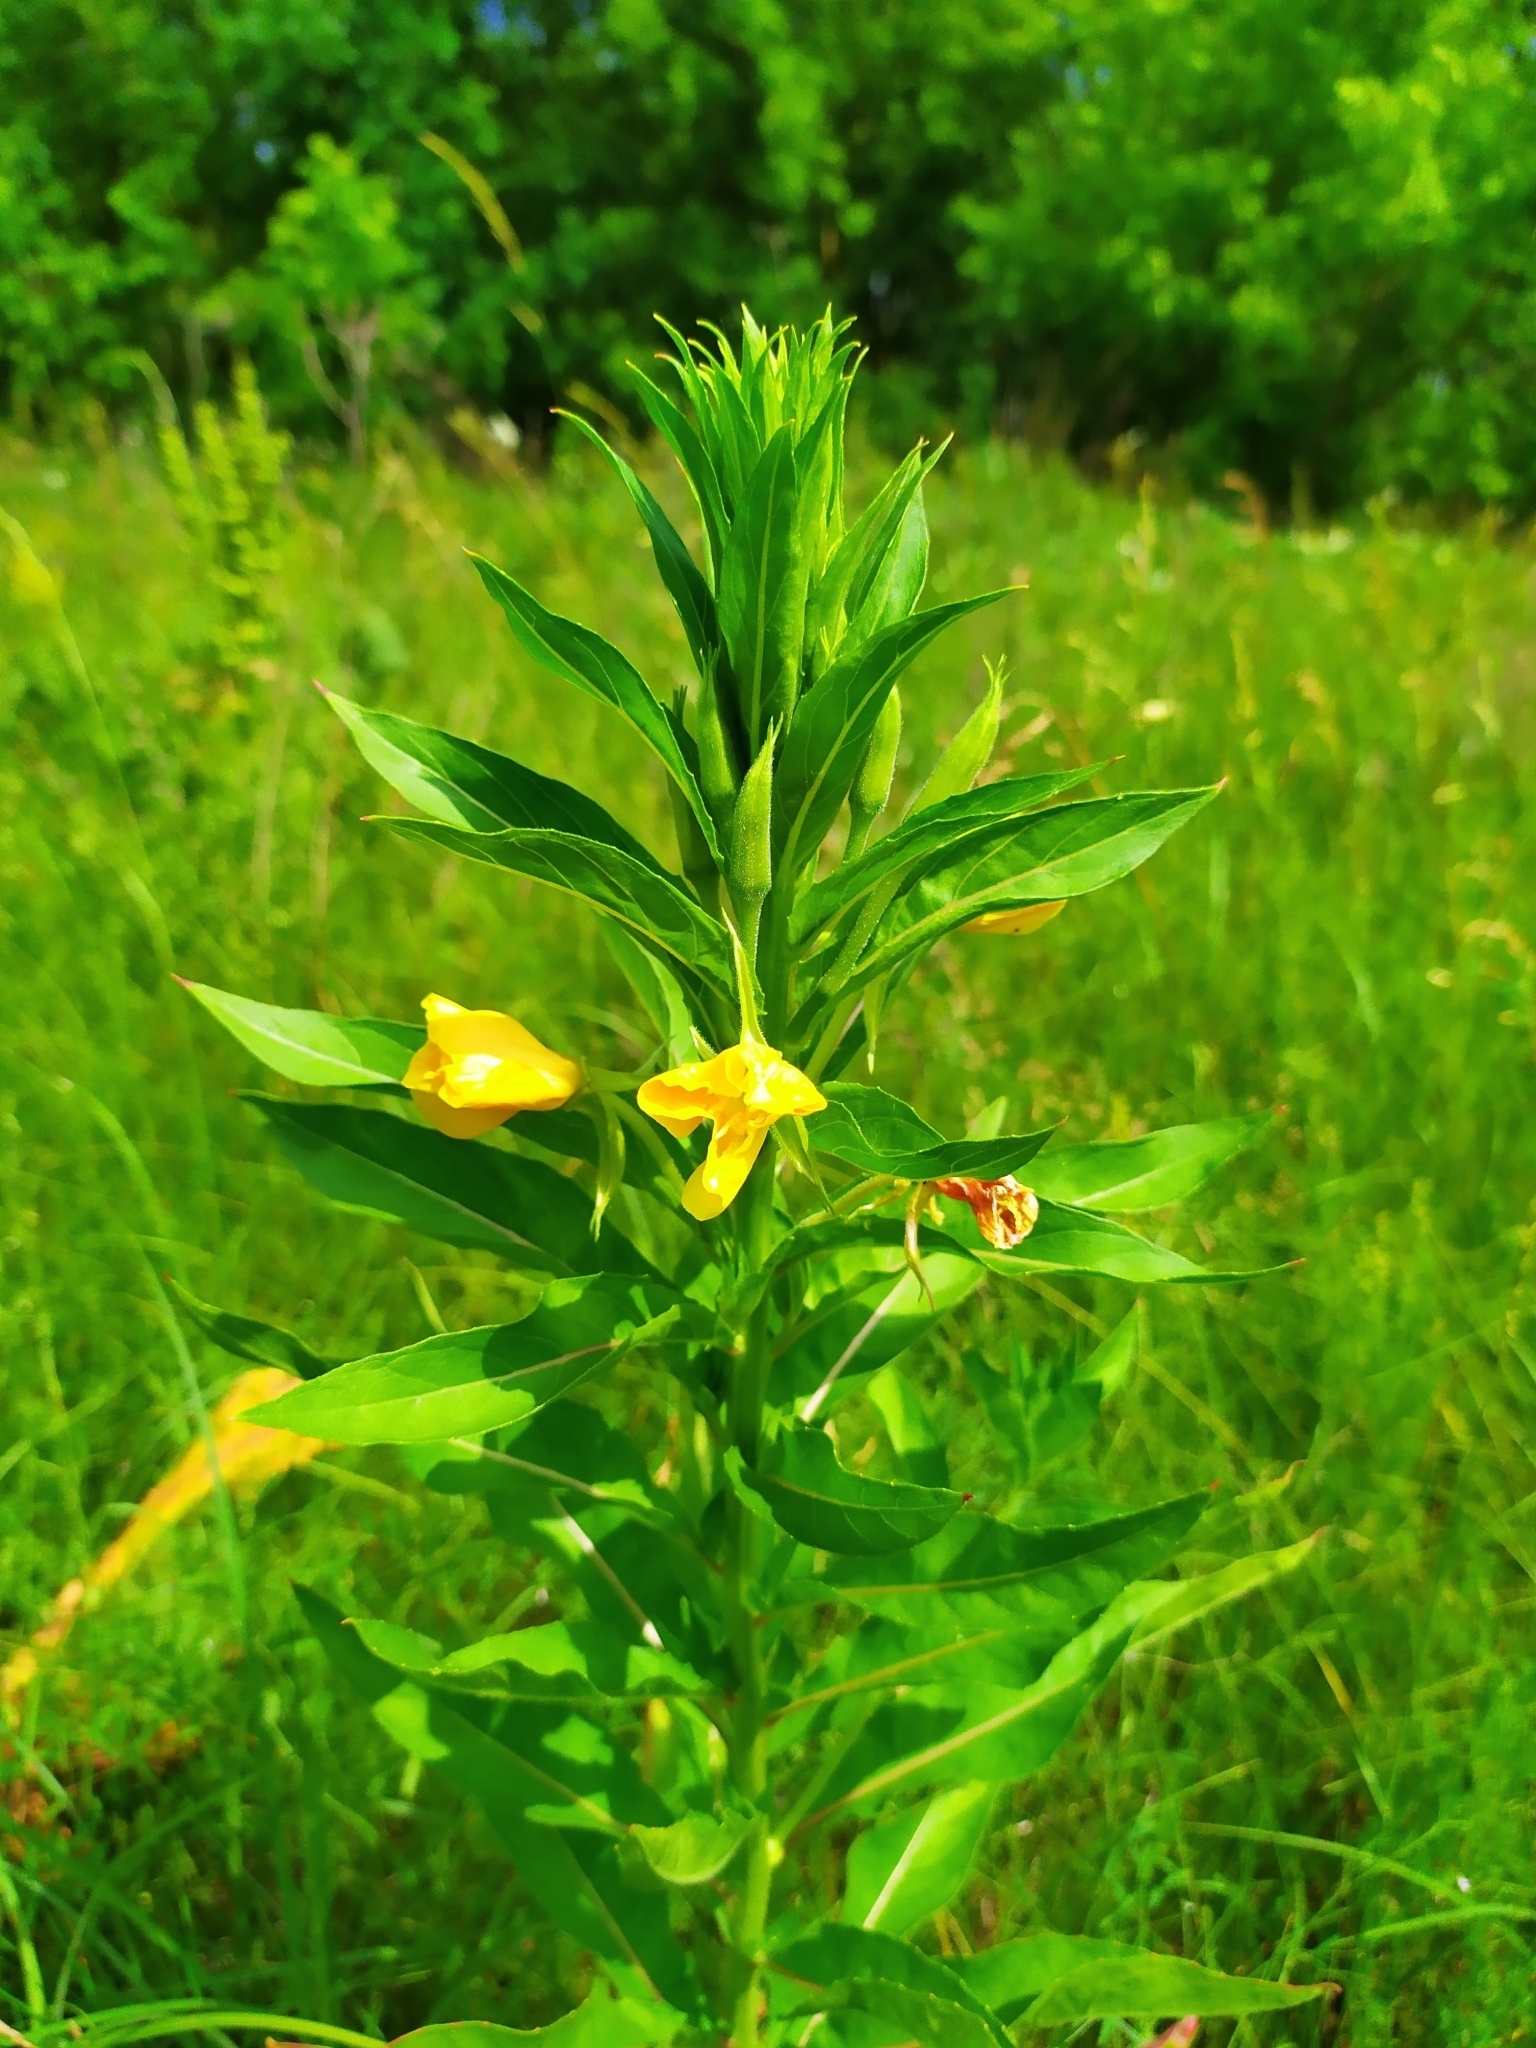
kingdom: Plantae
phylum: Tracheophyta
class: Magnoliopsida
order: Myrtales
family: Onagraceae
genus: Oenothera
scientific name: Oenothera biennis
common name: Common evening-primrose
